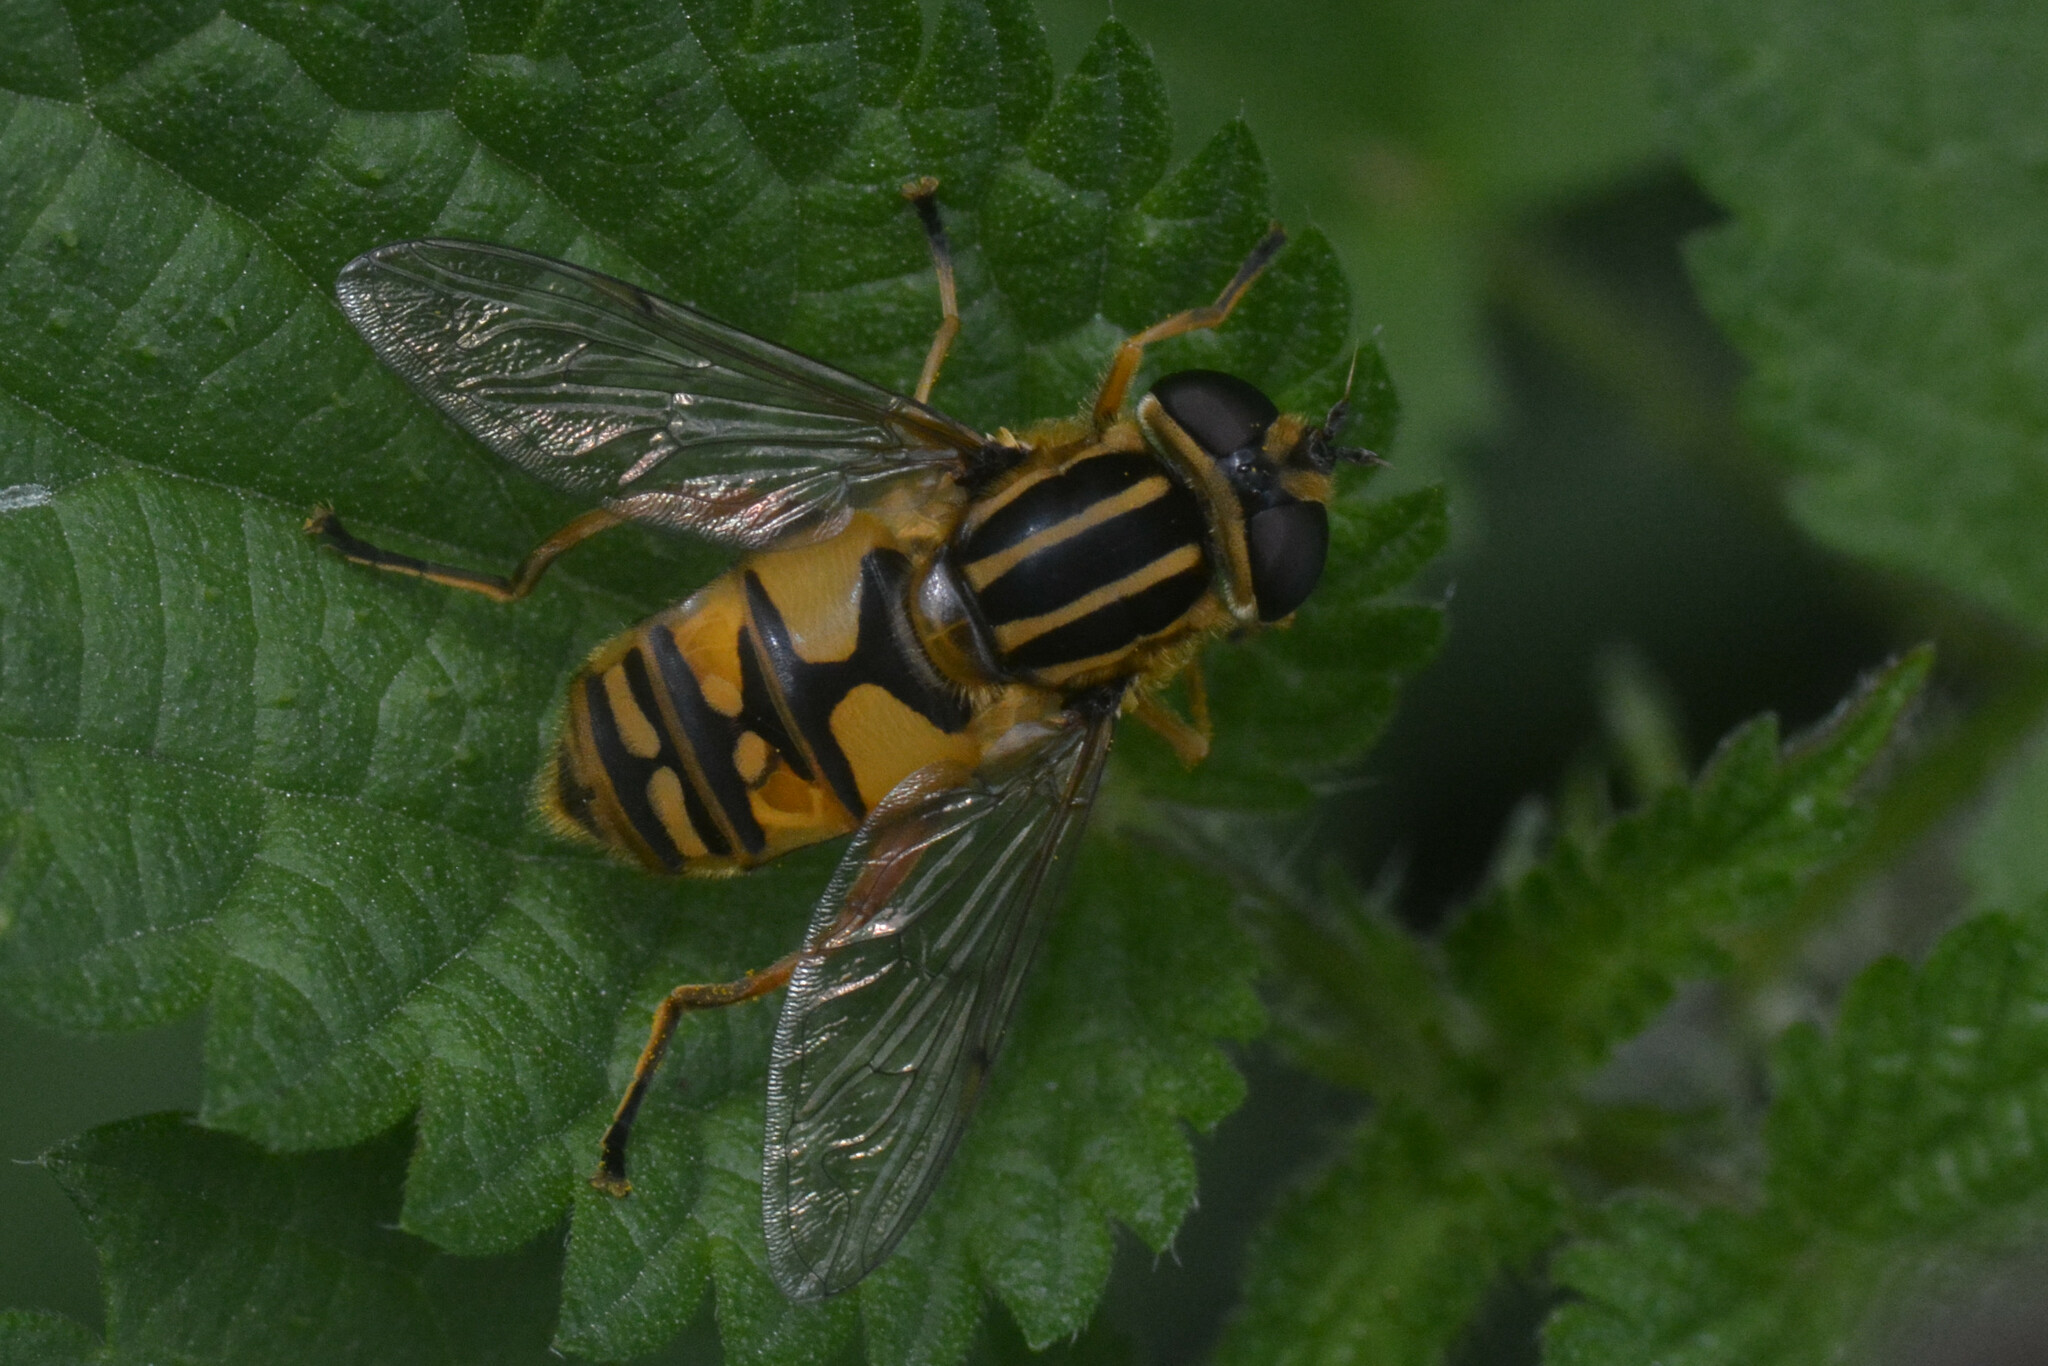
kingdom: Animalia
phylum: Arthropoda
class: Insecta
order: Diptera
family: Syrphidae
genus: Helophilus
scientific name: Helophilus pendulus
